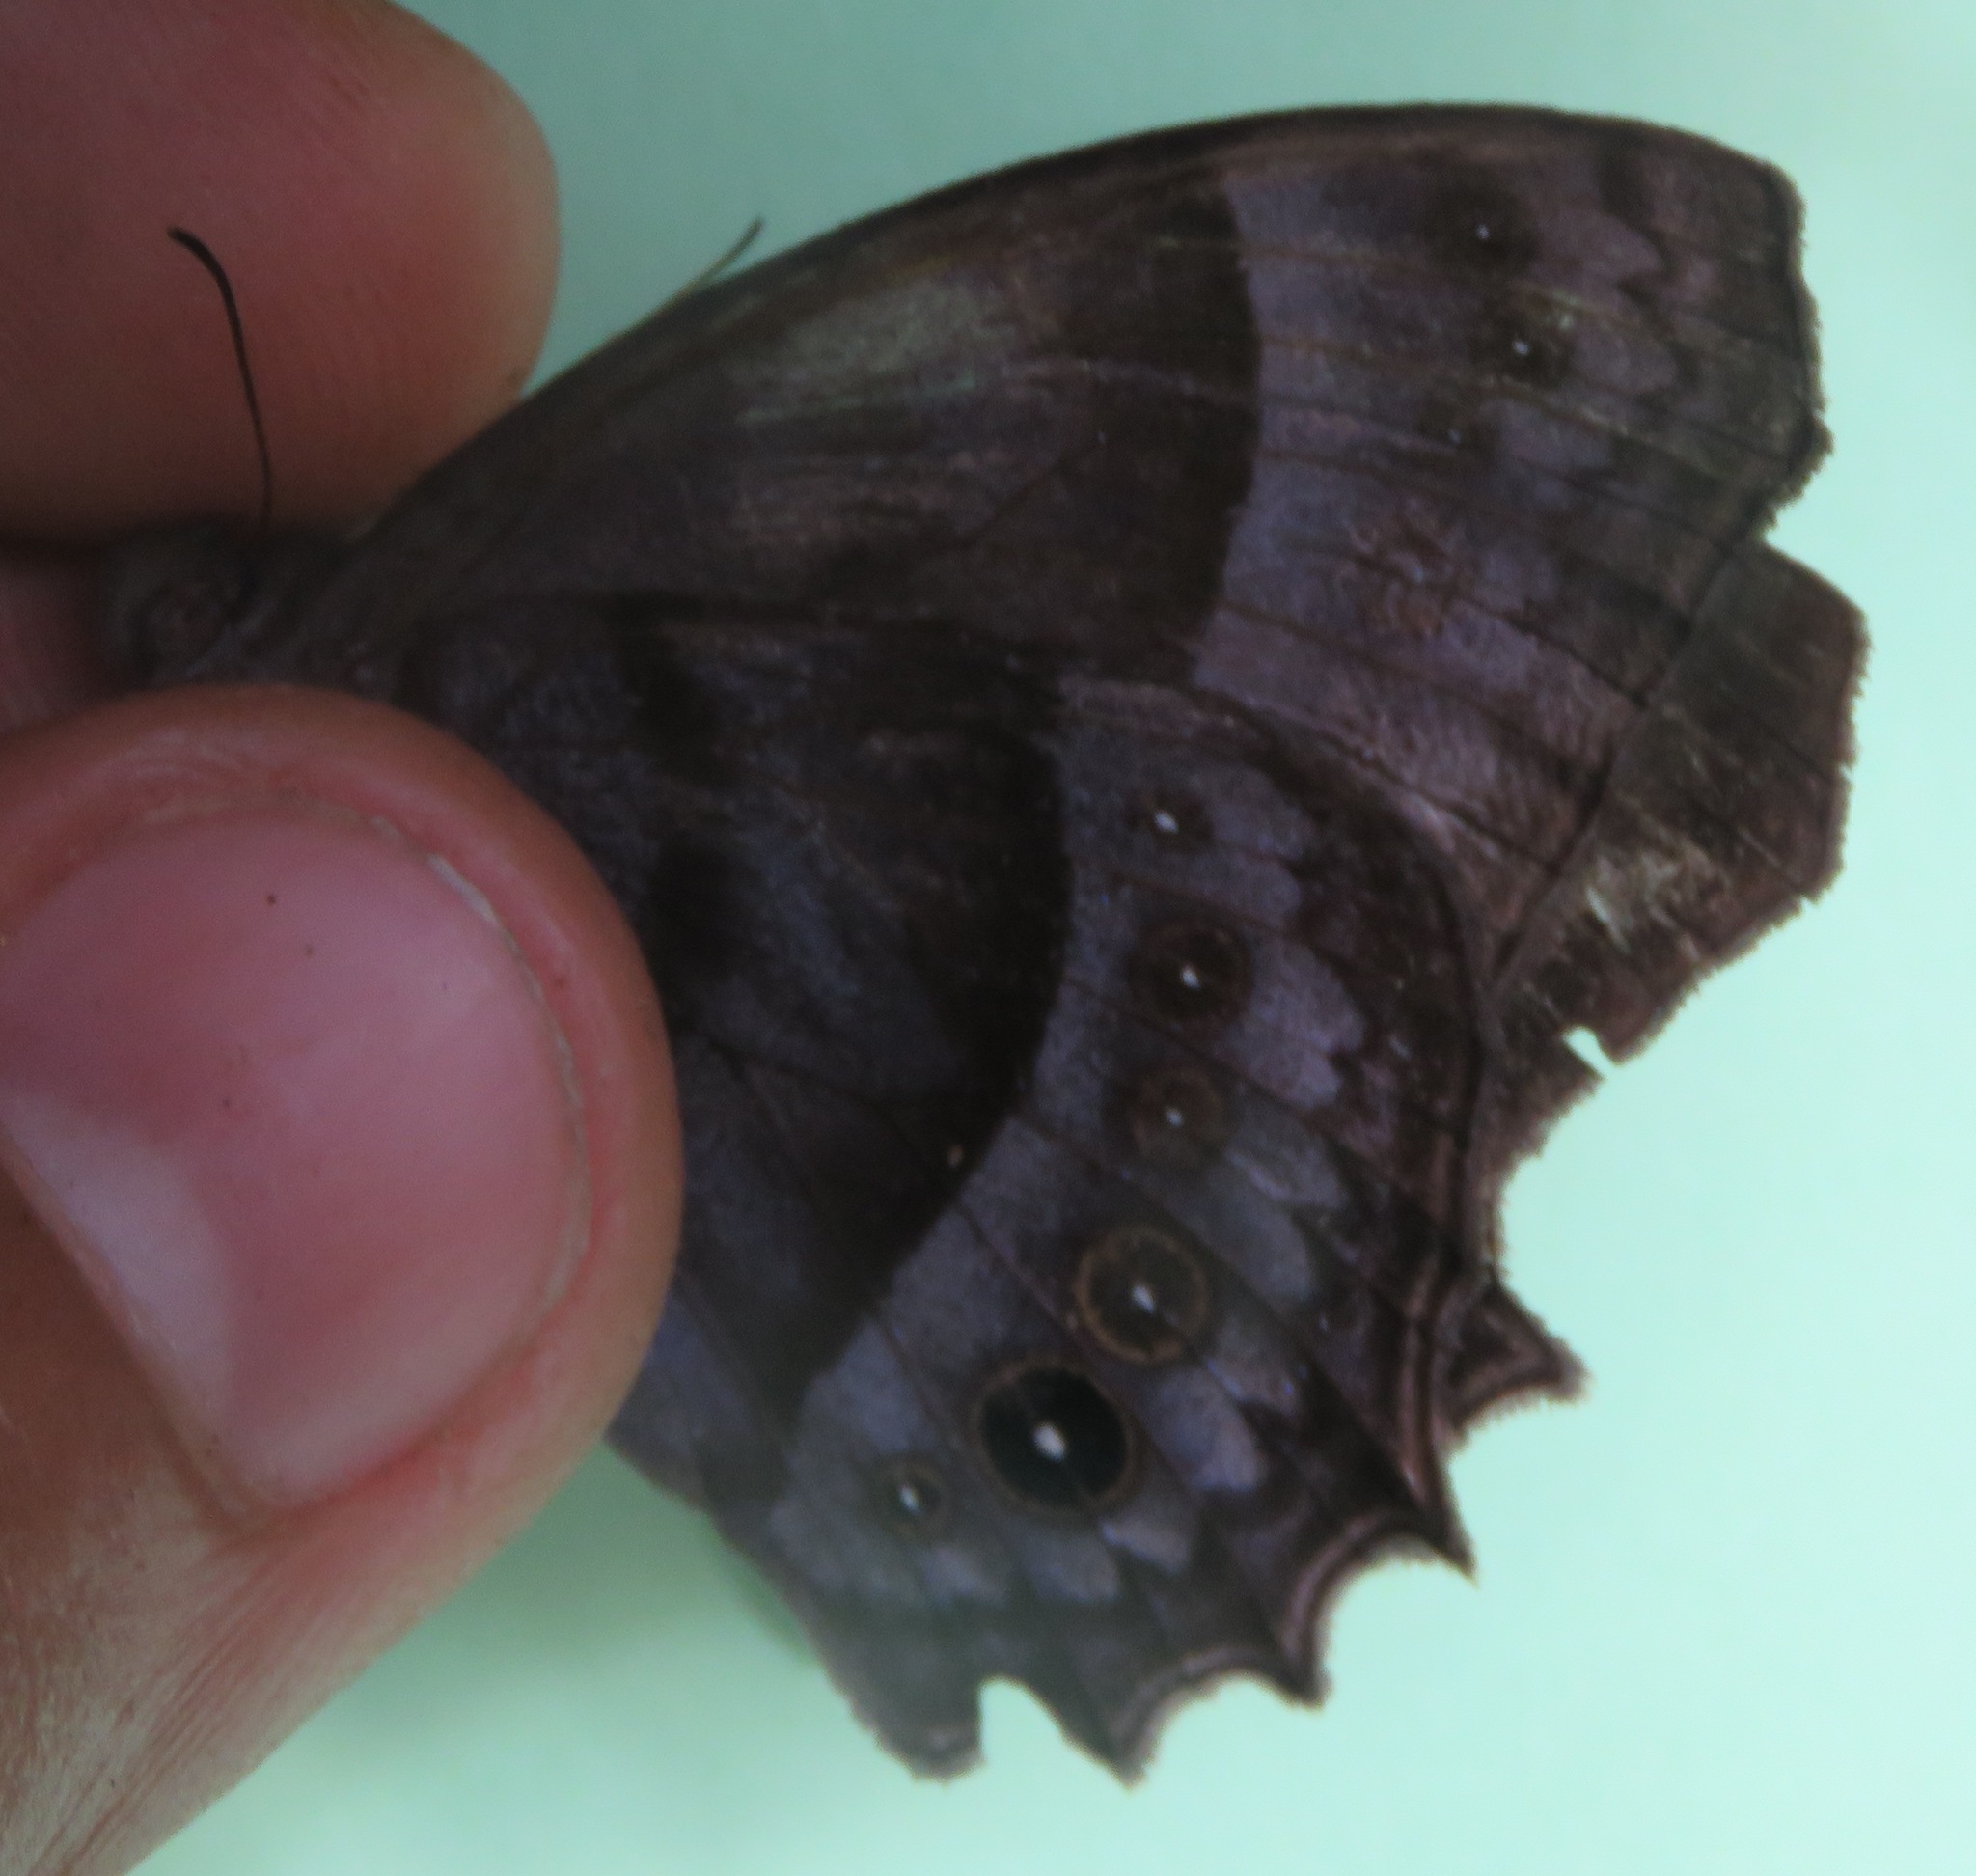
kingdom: Animalia
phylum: Arthropoda
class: Insecta
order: Lepidoptera
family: Nymphalidae
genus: Taygetis
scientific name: Taygetis inconspicua
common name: Inconspicuous satyr
